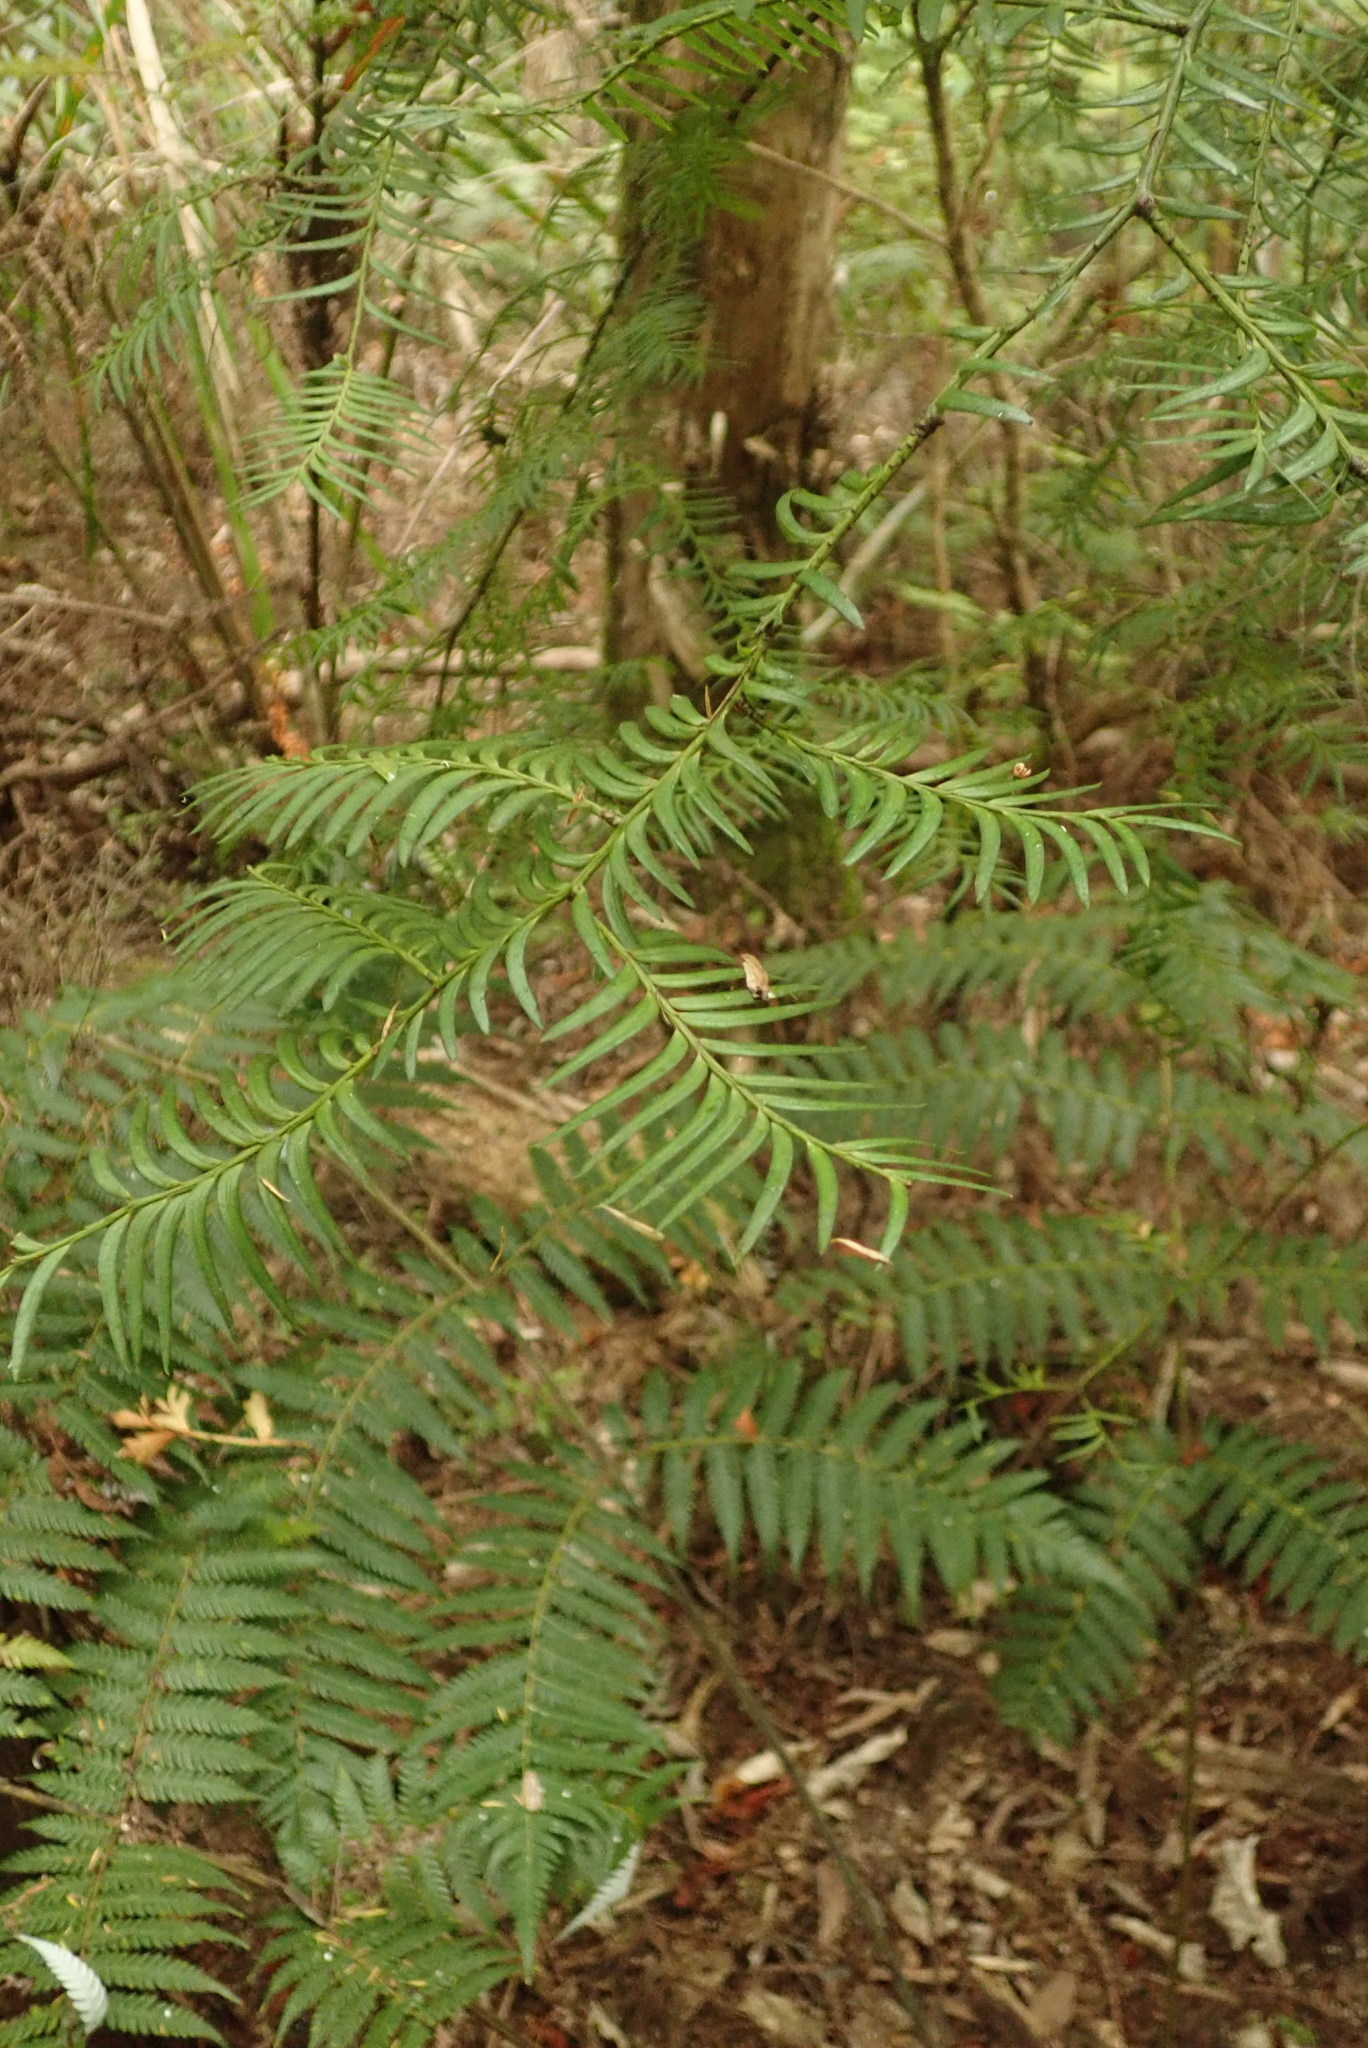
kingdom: Plantae
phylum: Tracheophyta
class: Pinopsida
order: Pinales
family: Podocarpaceae
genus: Prumnopitys
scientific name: Prumnopitys ferruginea
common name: Brown pine
